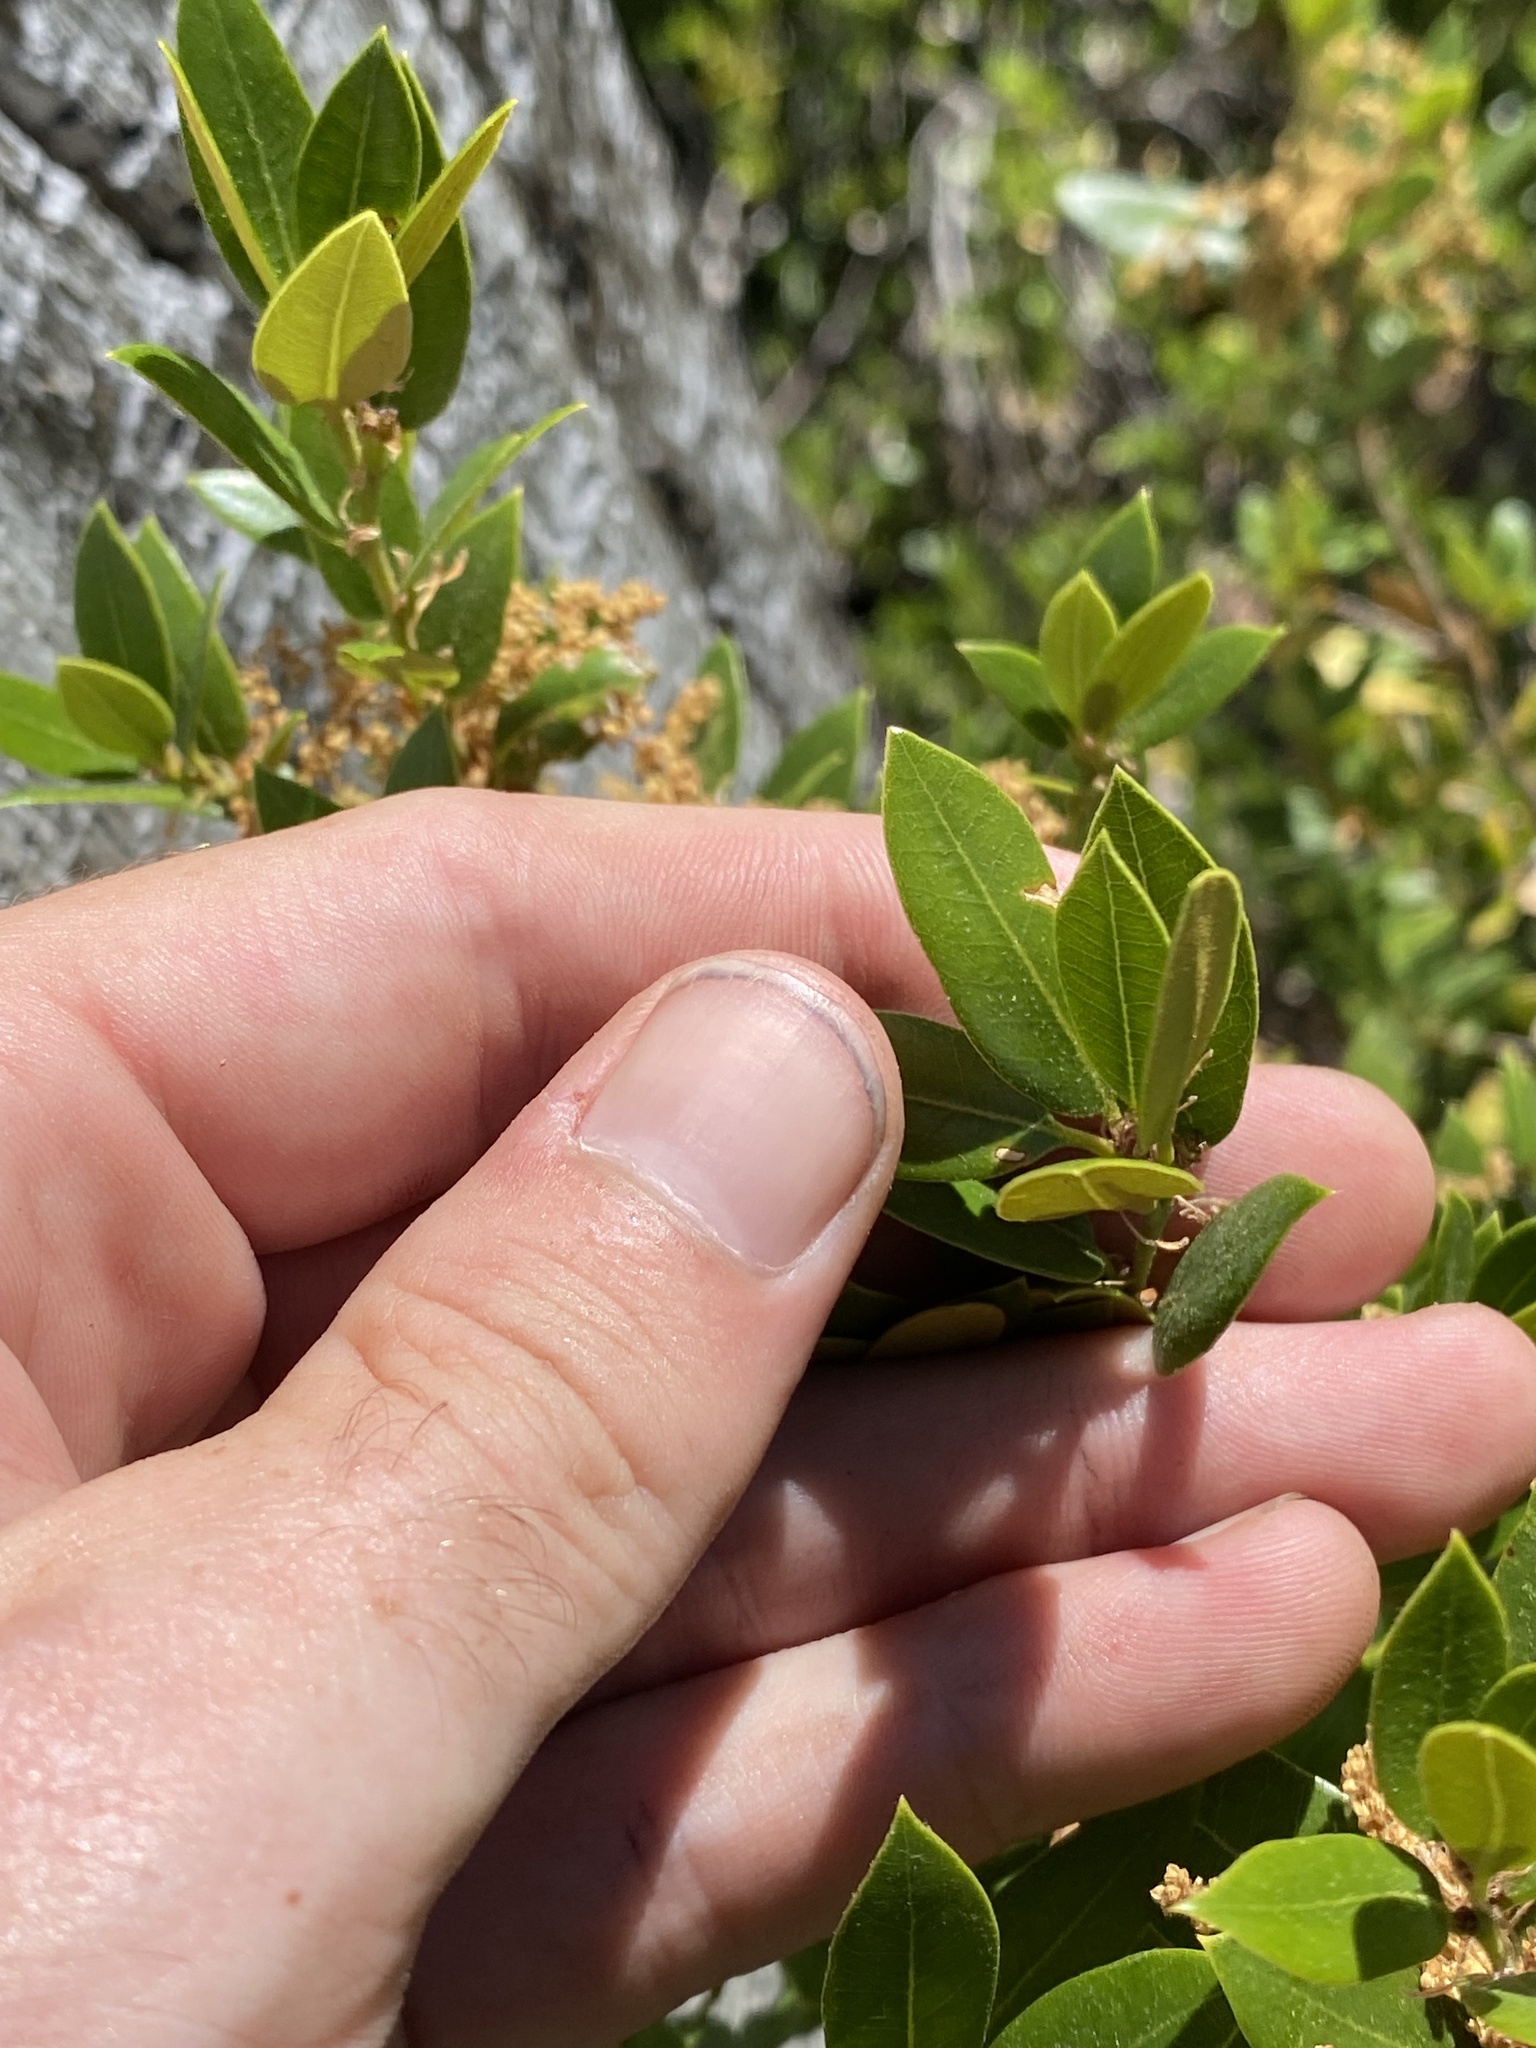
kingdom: Plantae
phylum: Tracheophyta
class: Magnoliopsida
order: Fagales
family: Fagaceae
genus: Quercus
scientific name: Quercus vacciniifolia
